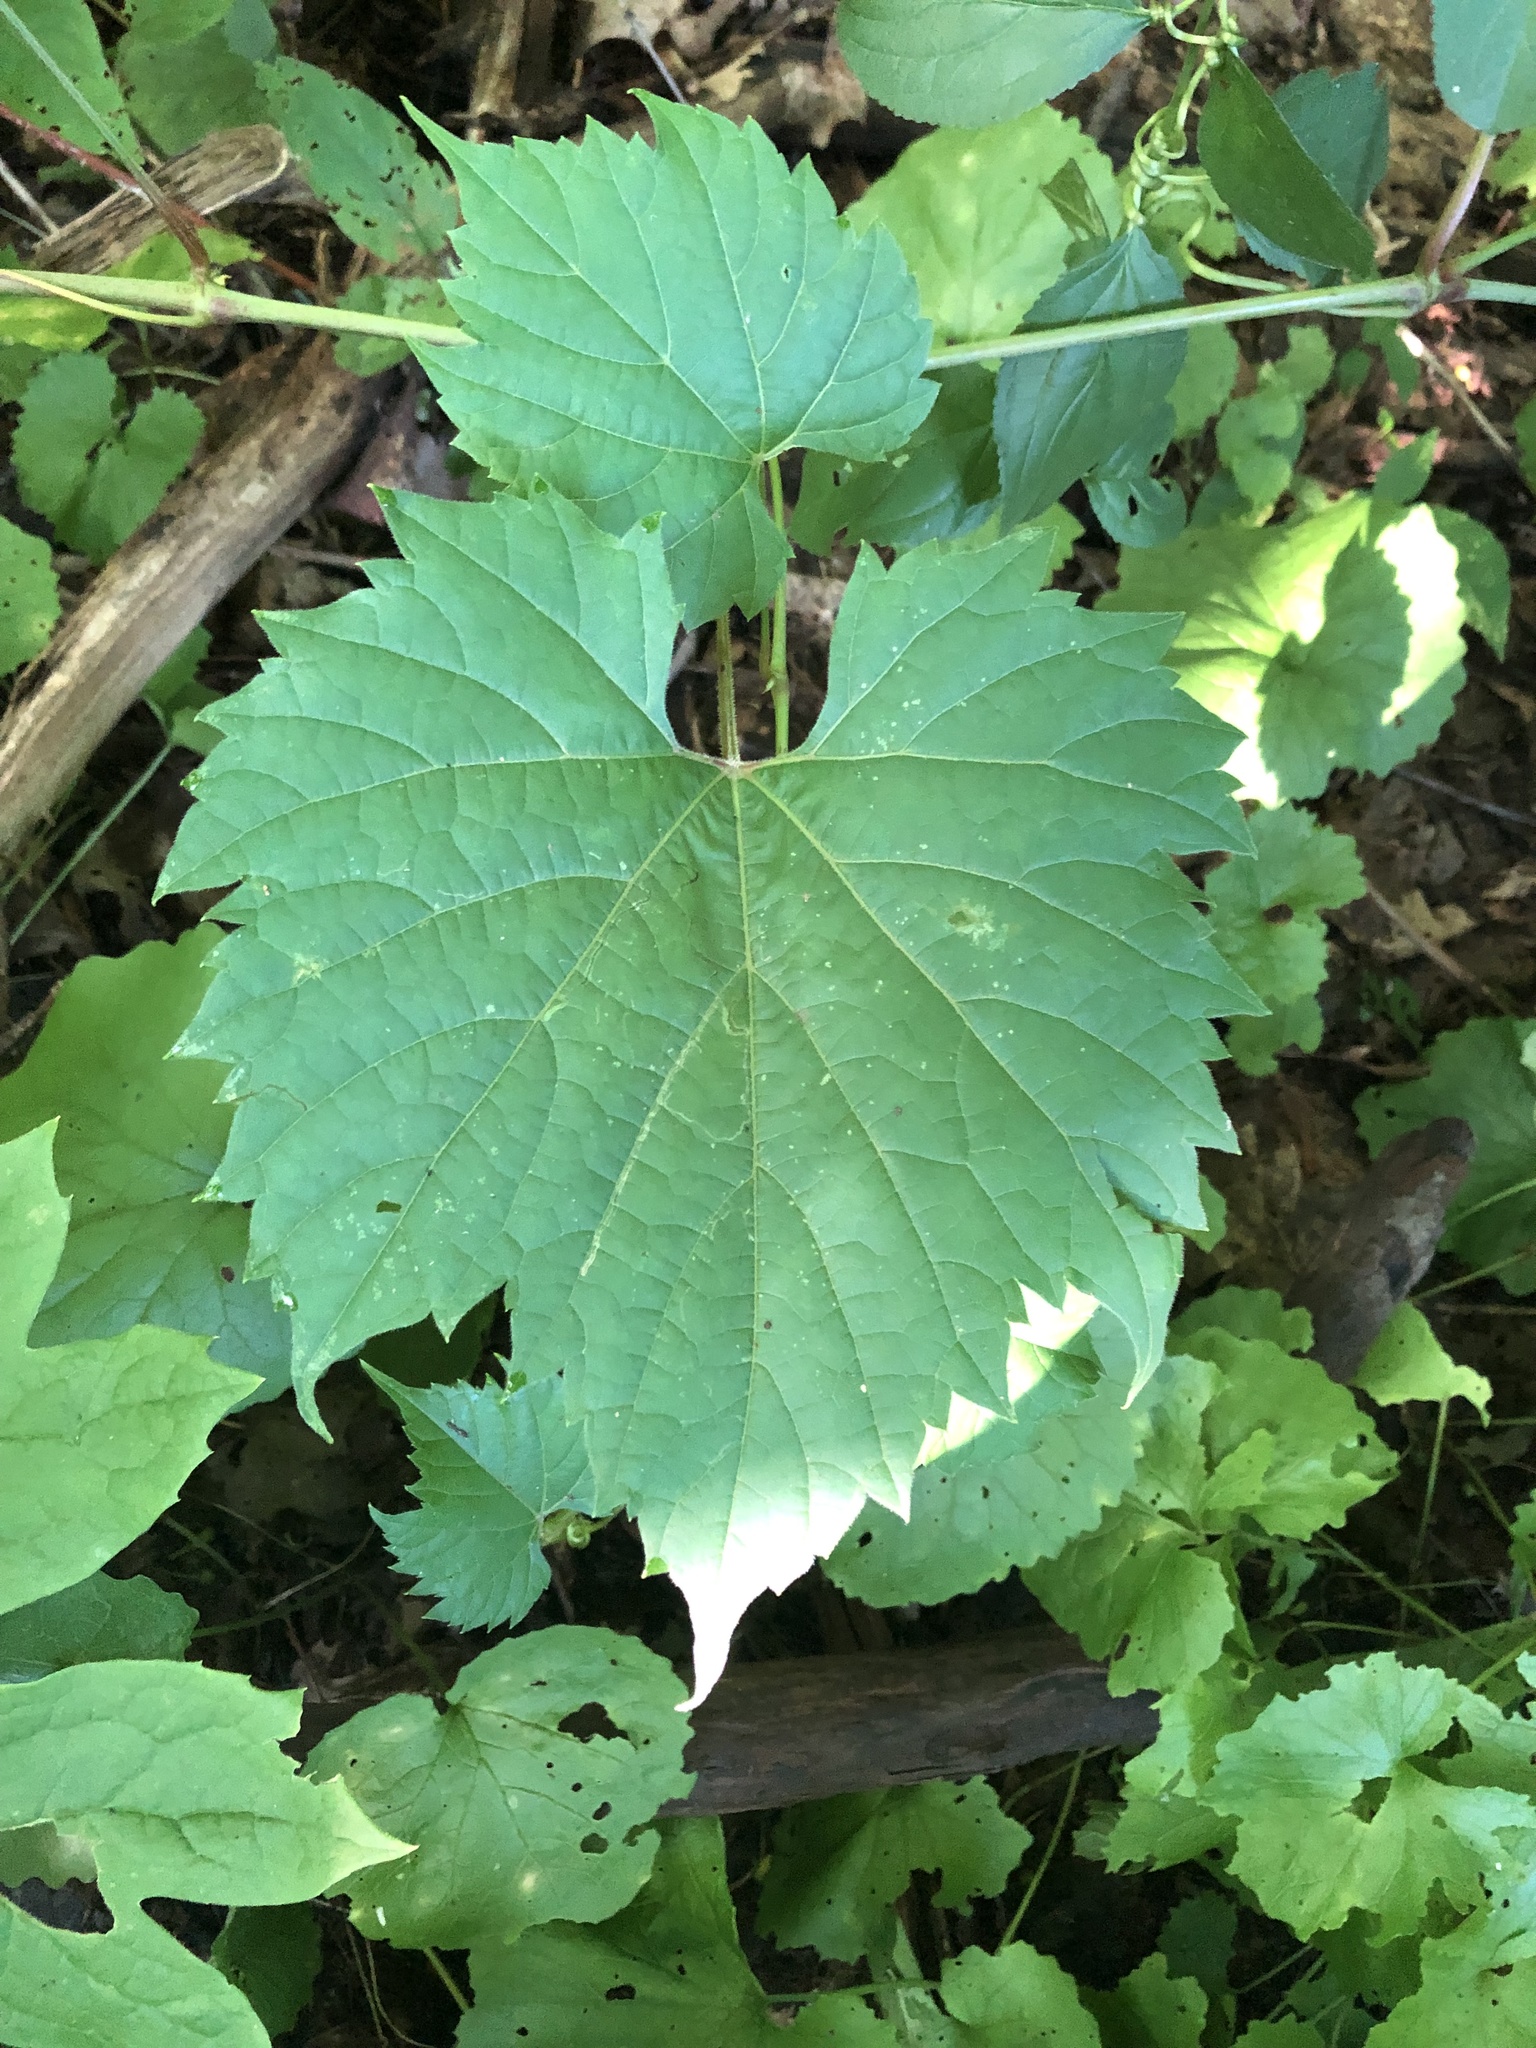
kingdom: Plantae
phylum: Tracheophyta
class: Magnoliopsida
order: Vitales
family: Vitaceae
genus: Vitis
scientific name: Vitis riparia
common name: Frost grape
